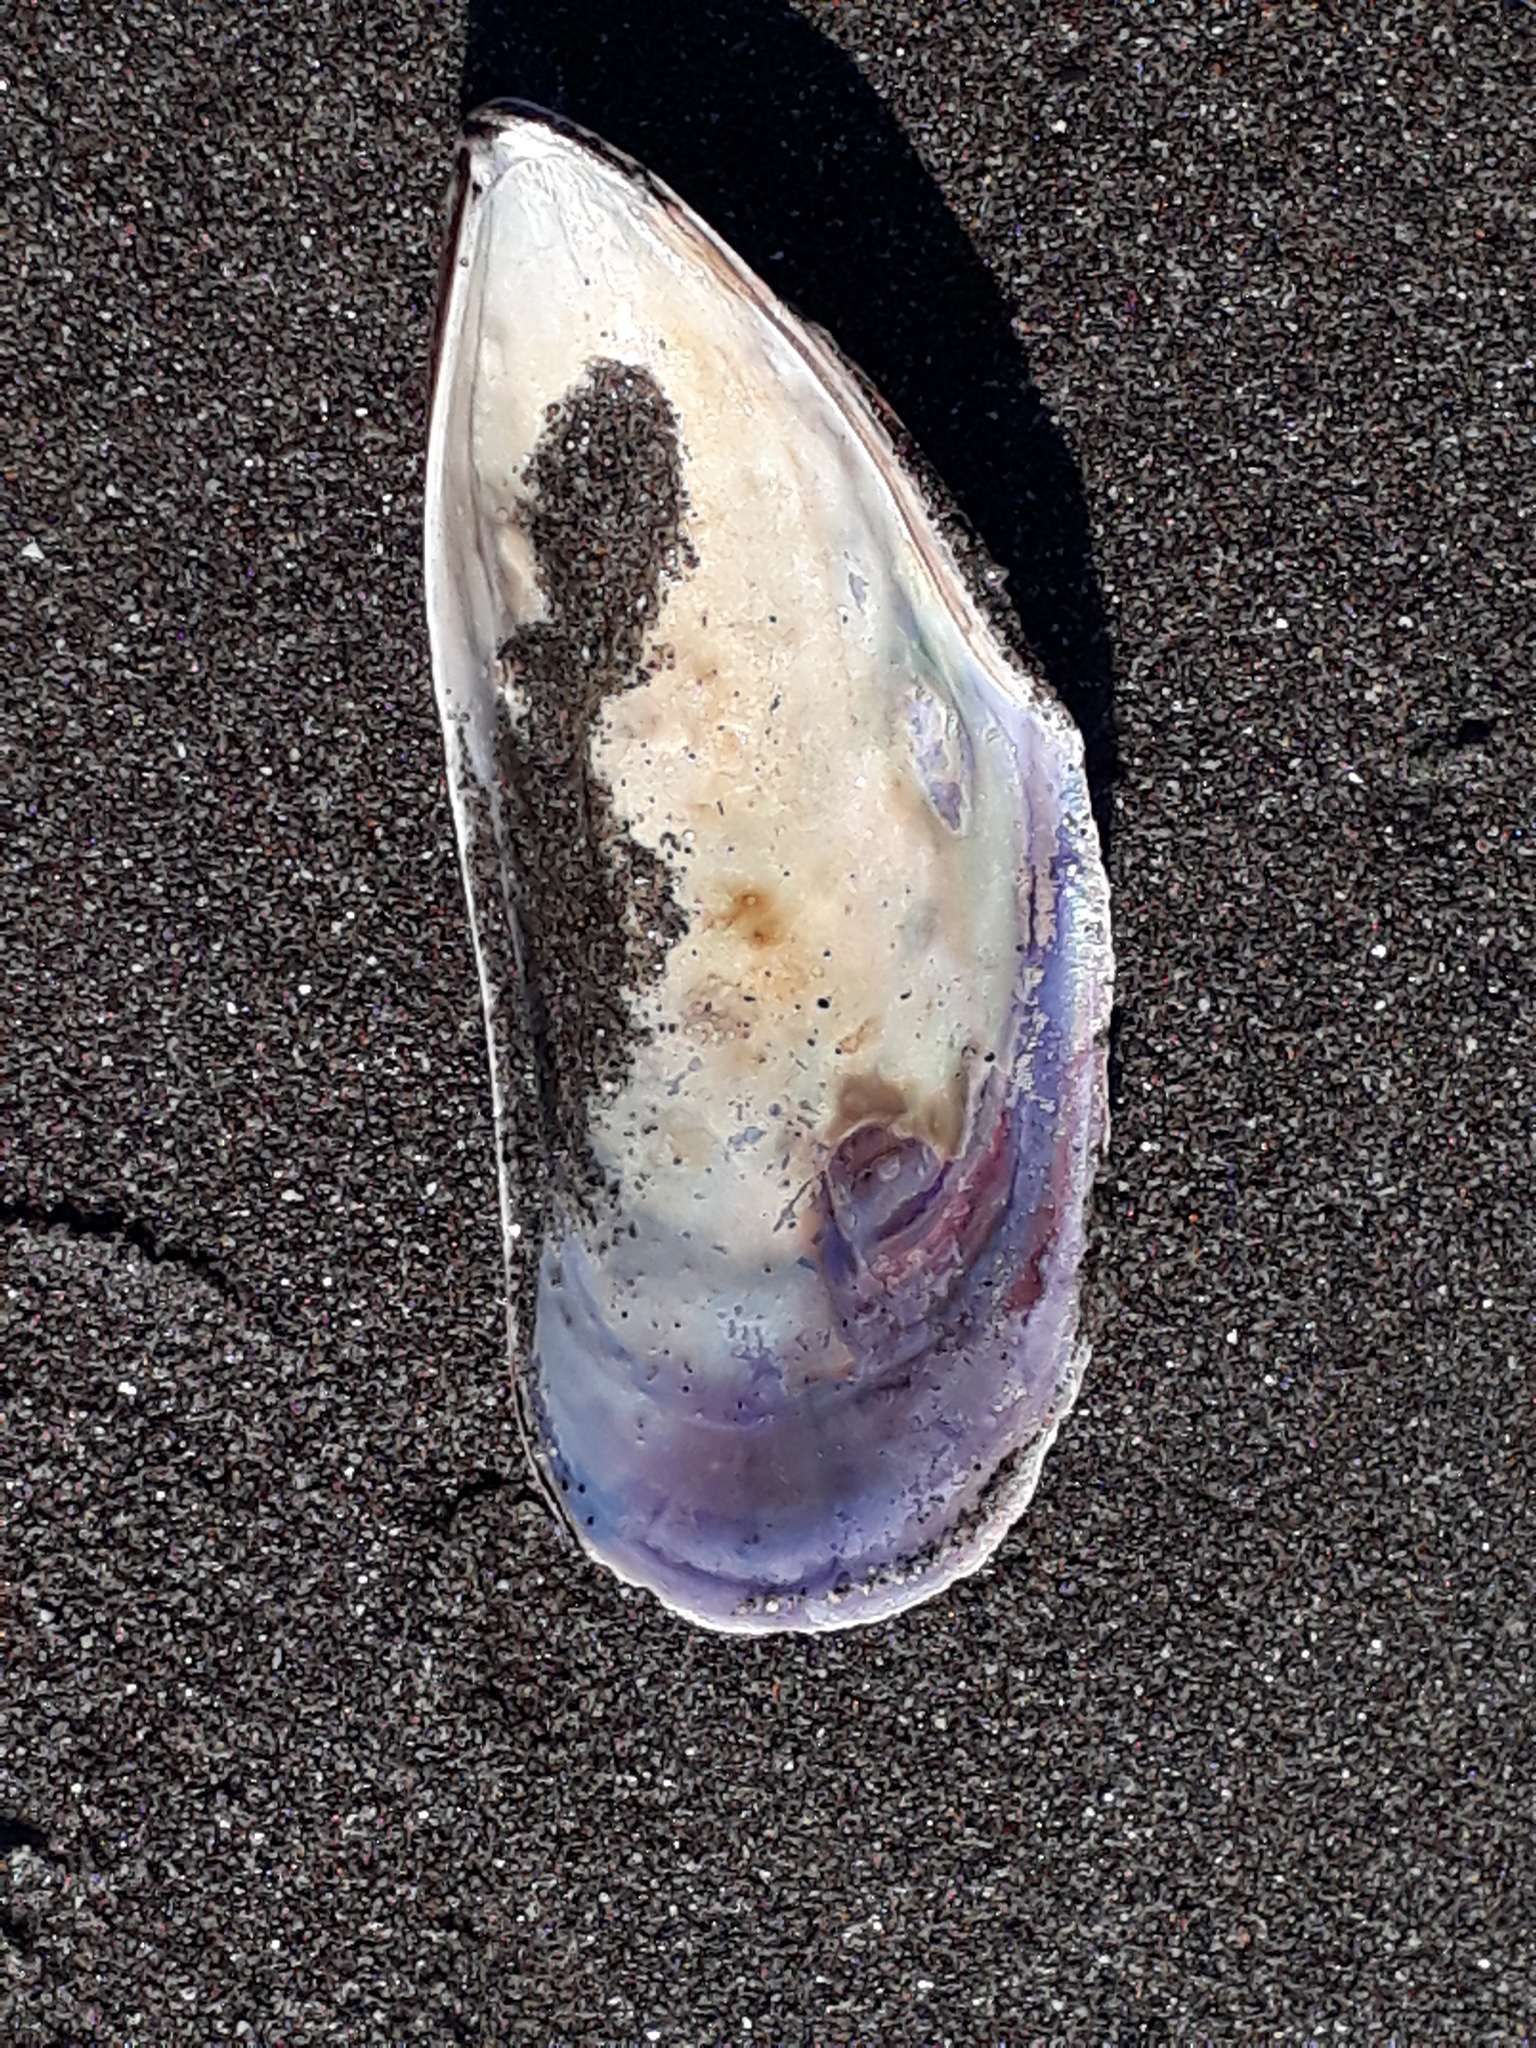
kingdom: Animalia
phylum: Mollusca
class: Bivalvia
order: Mytilida
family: Mytilidae
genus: Perna
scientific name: Perna canaliculus
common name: New zealand greenshelltm
